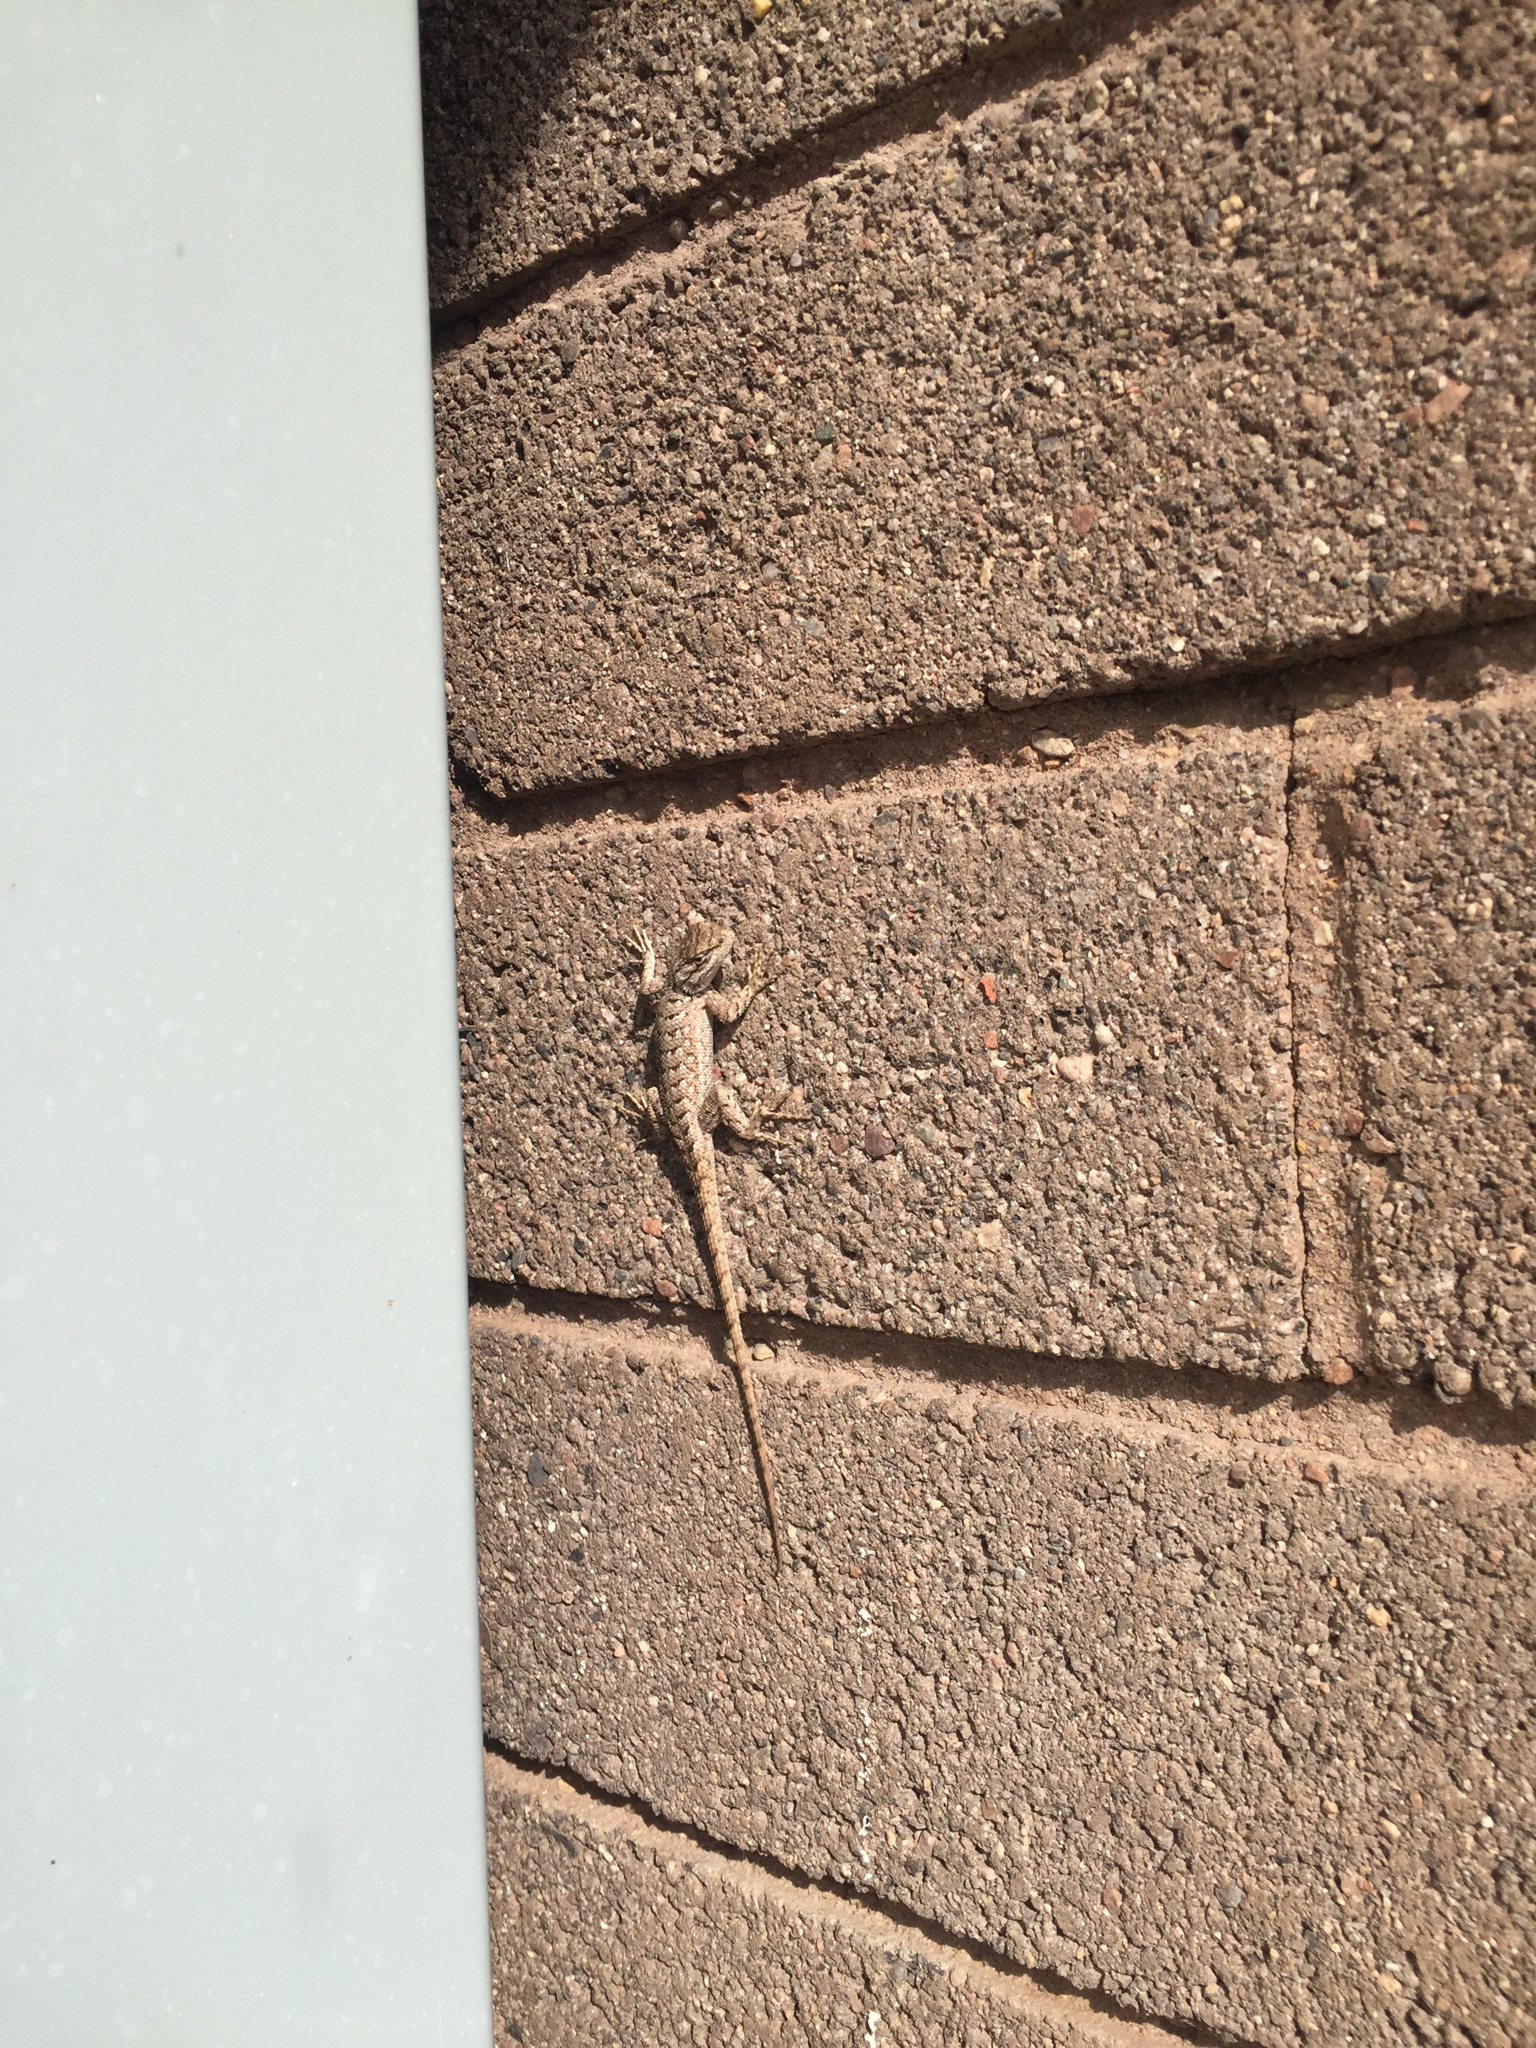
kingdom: Animalia
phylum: Chordata
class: Squamata
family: Phrynosomatidae
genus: Sceloporus
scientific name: Sceloporus tristichus
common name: Plateau fence lizard
